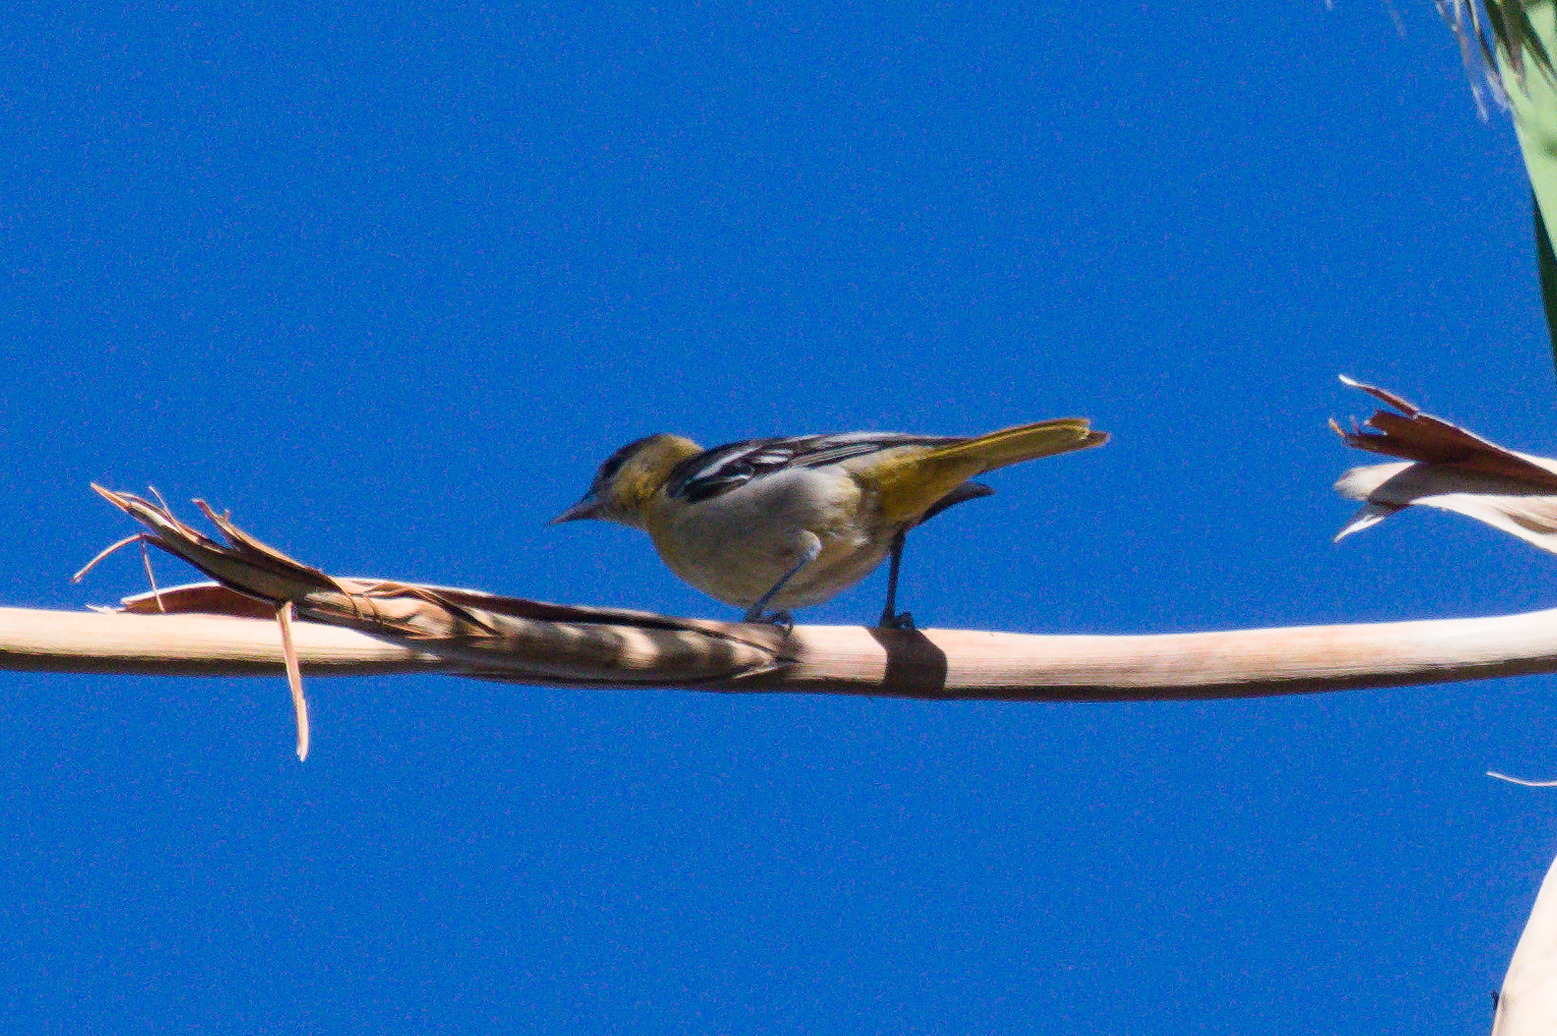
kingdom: Animalia
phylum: Chordata
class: Aves
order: Passeriformes
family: Icteridae
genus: Icterus
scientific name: Icterus galbula
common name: Baltimore oriole
